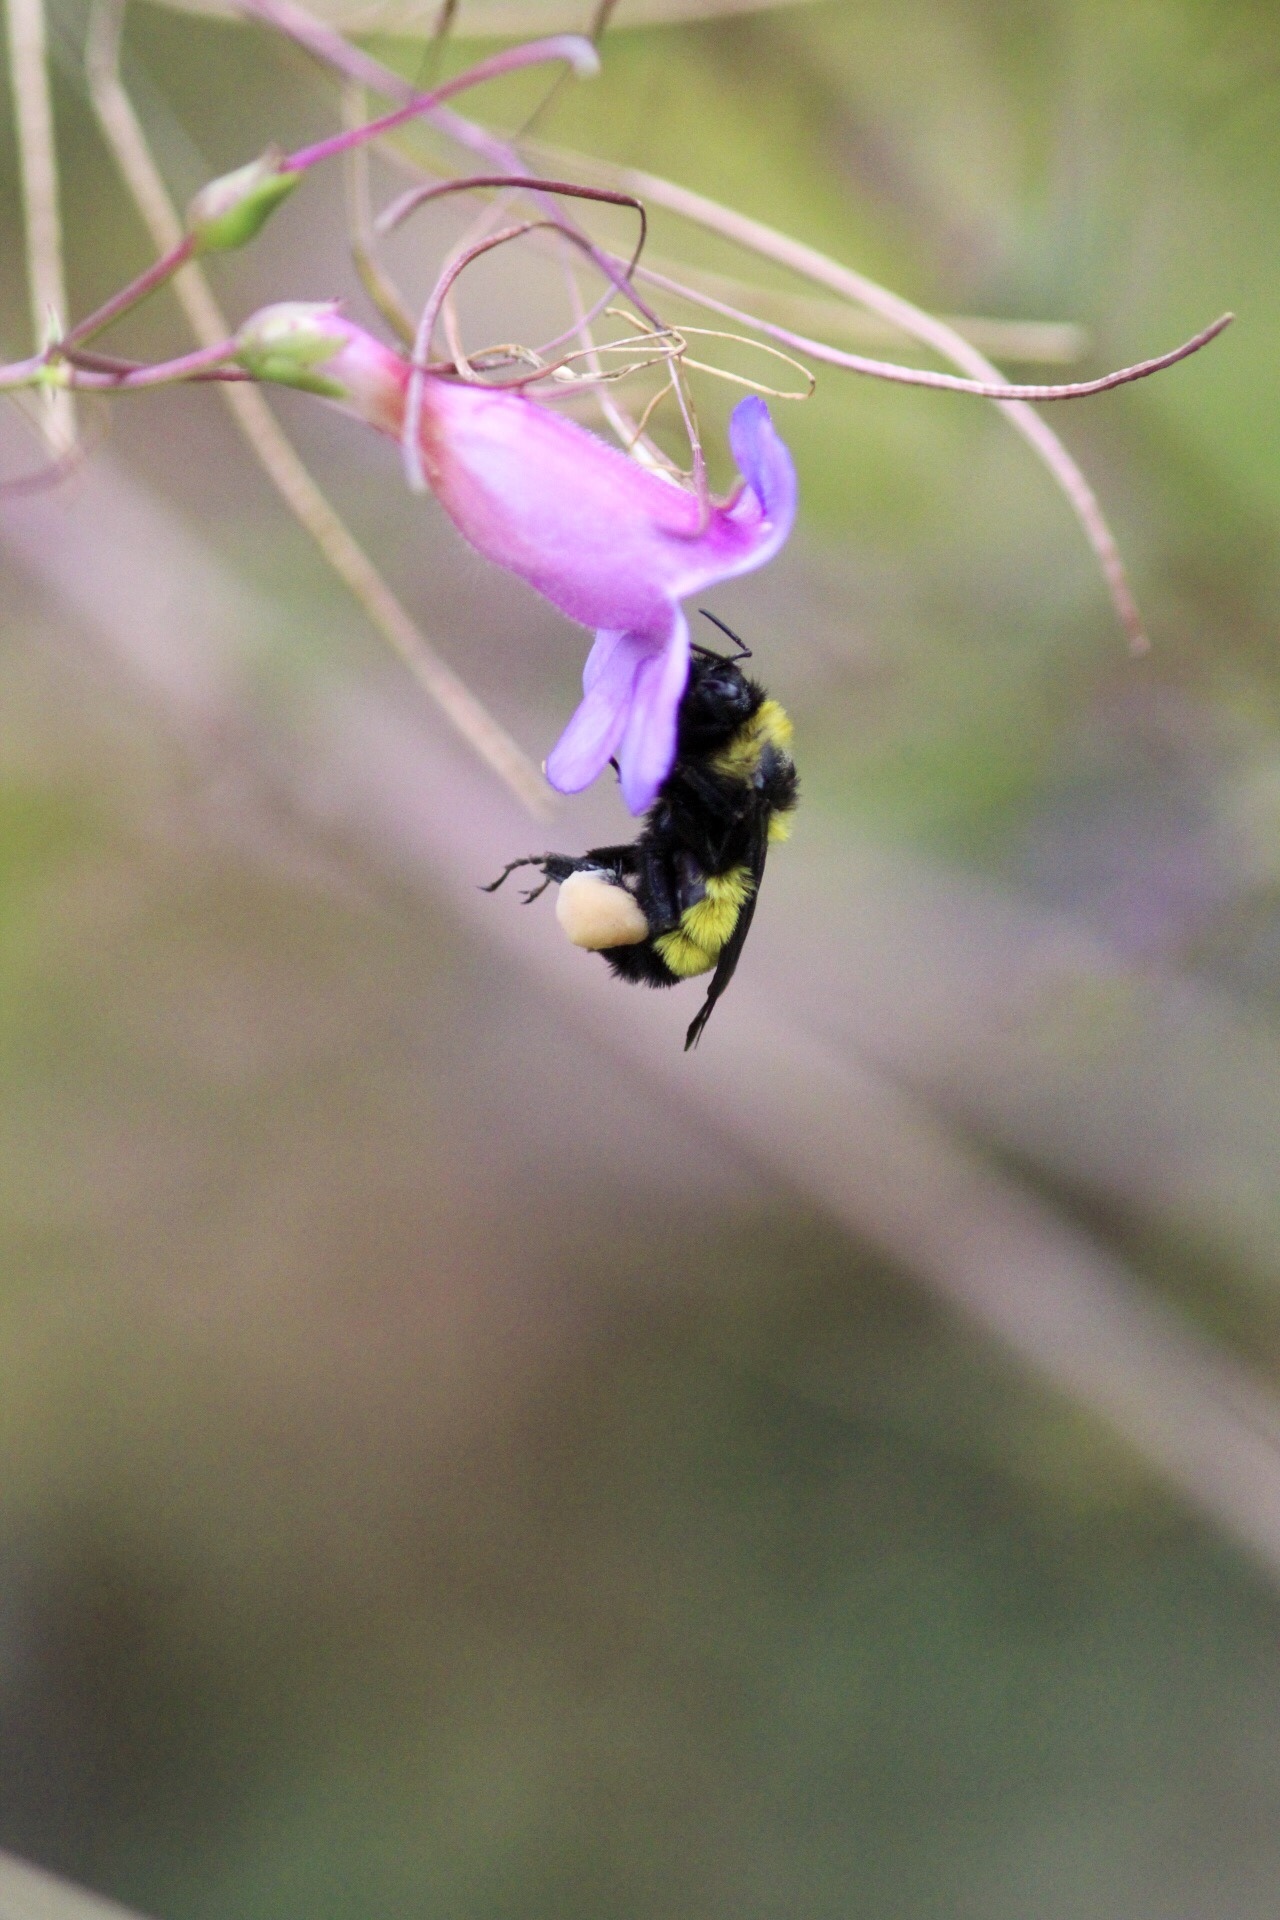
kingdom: Animalia
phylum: Arthropoda
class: Insecta
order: Hymenoptera
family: Apidae
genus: Bombus
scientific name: Bombus sonorus
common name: Sonoran bumble bee
